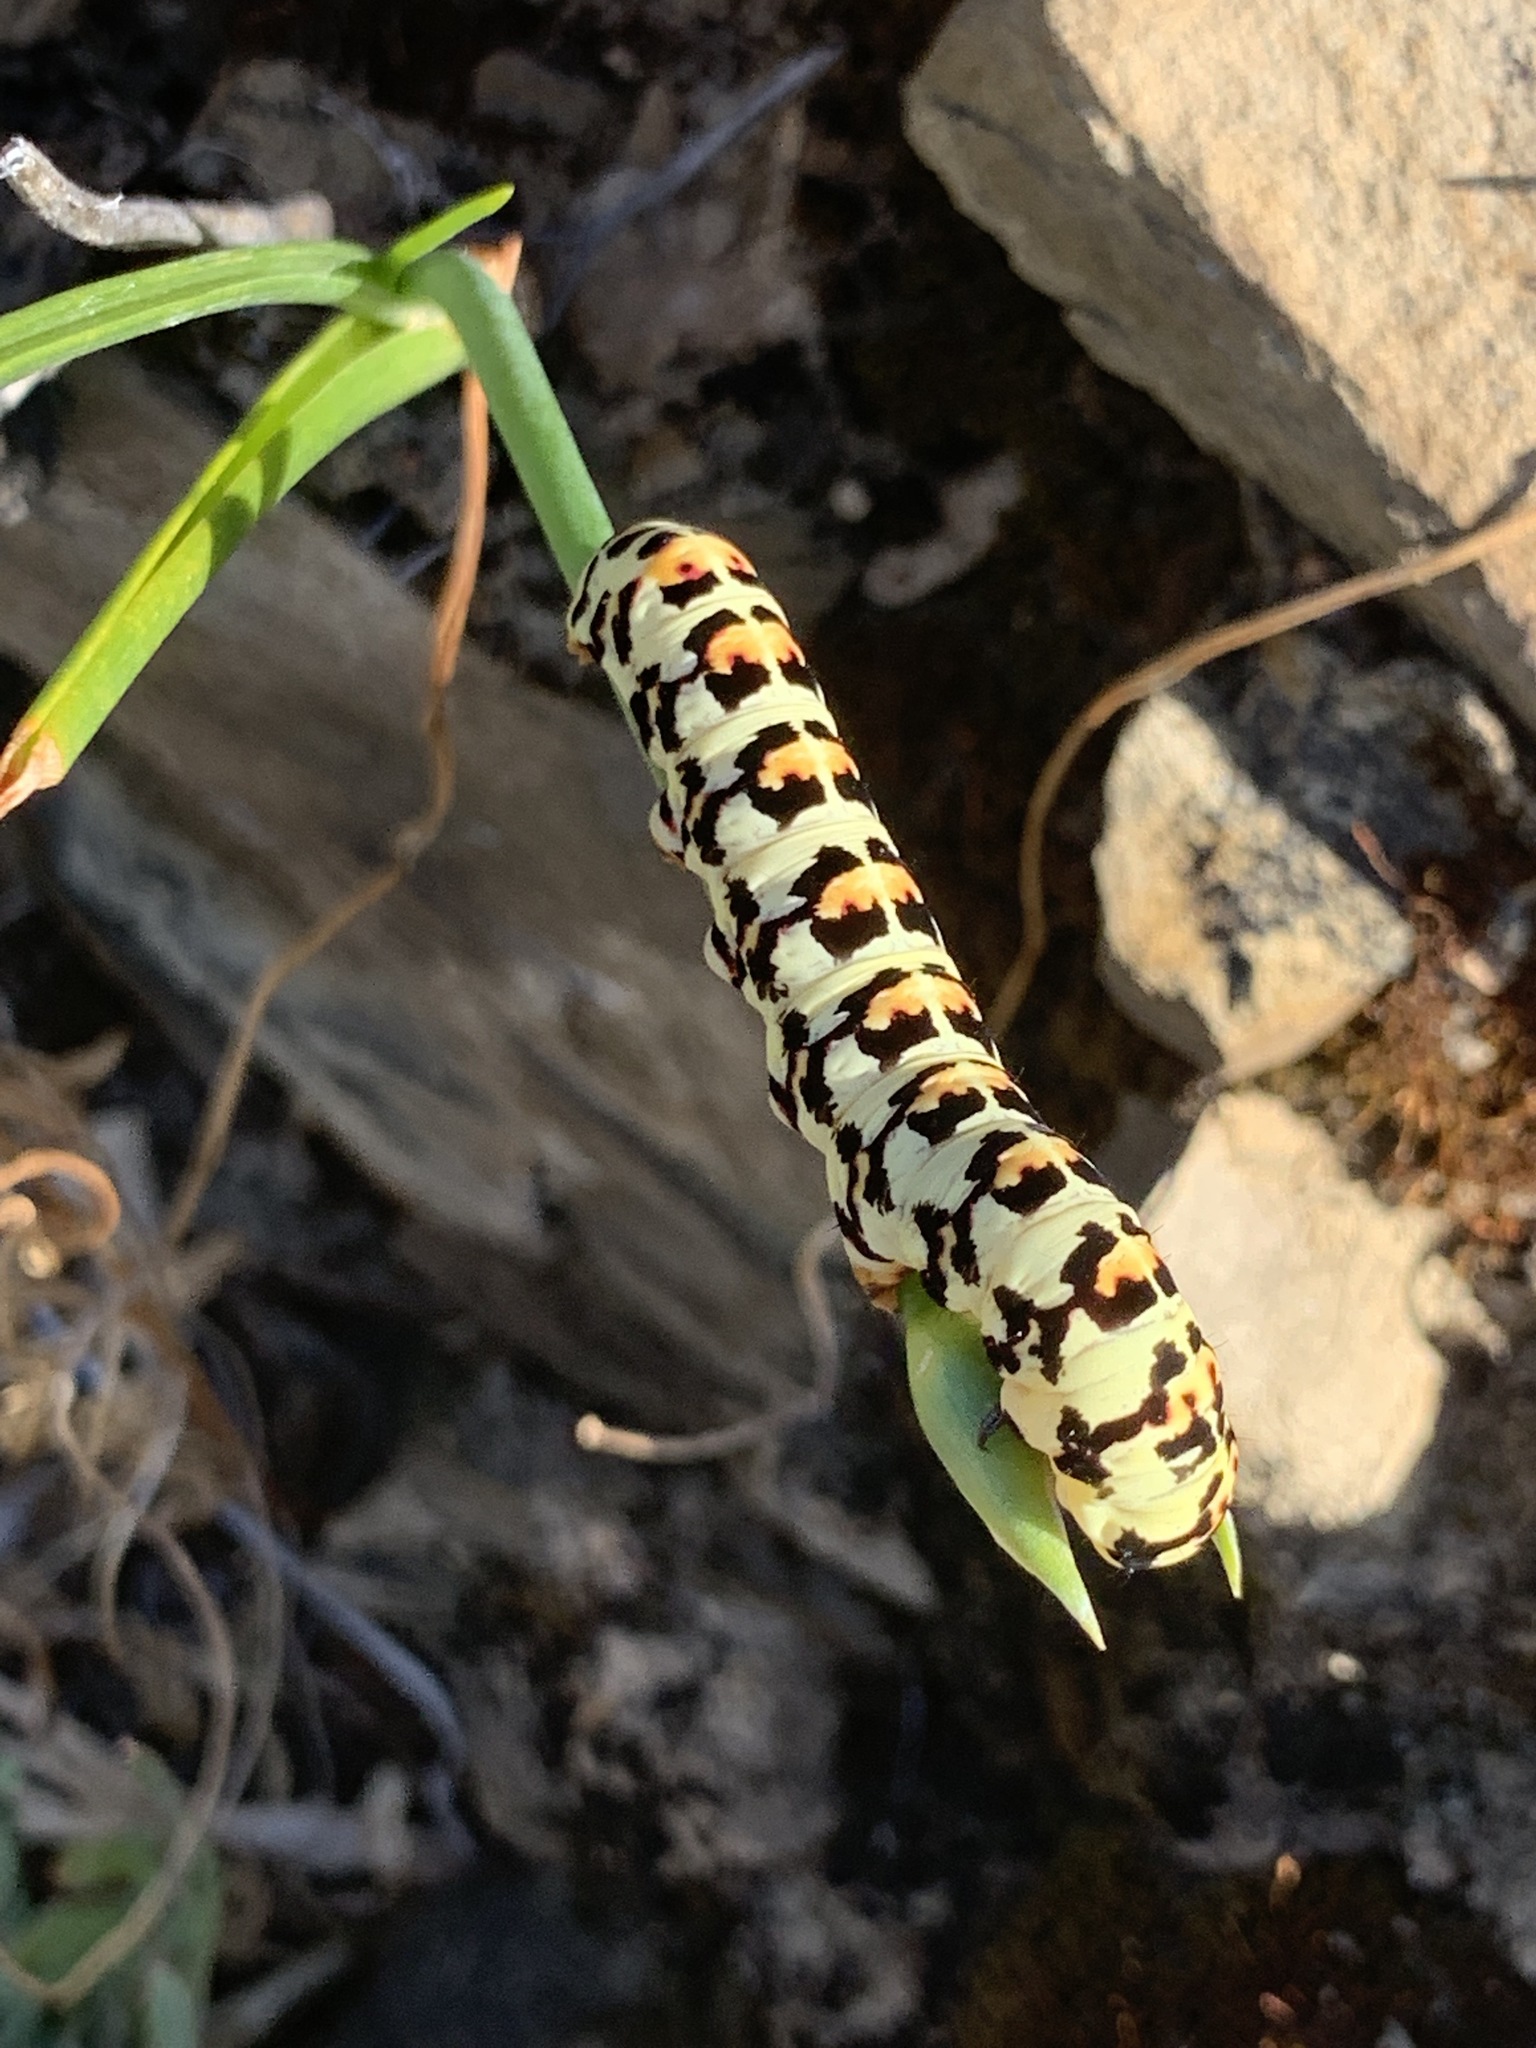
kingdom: Animalia
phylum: Arthropoda
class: Insecta
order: Lepidoptera
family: Noctuidae
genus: Diaphone
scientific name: Diaphone eumela
